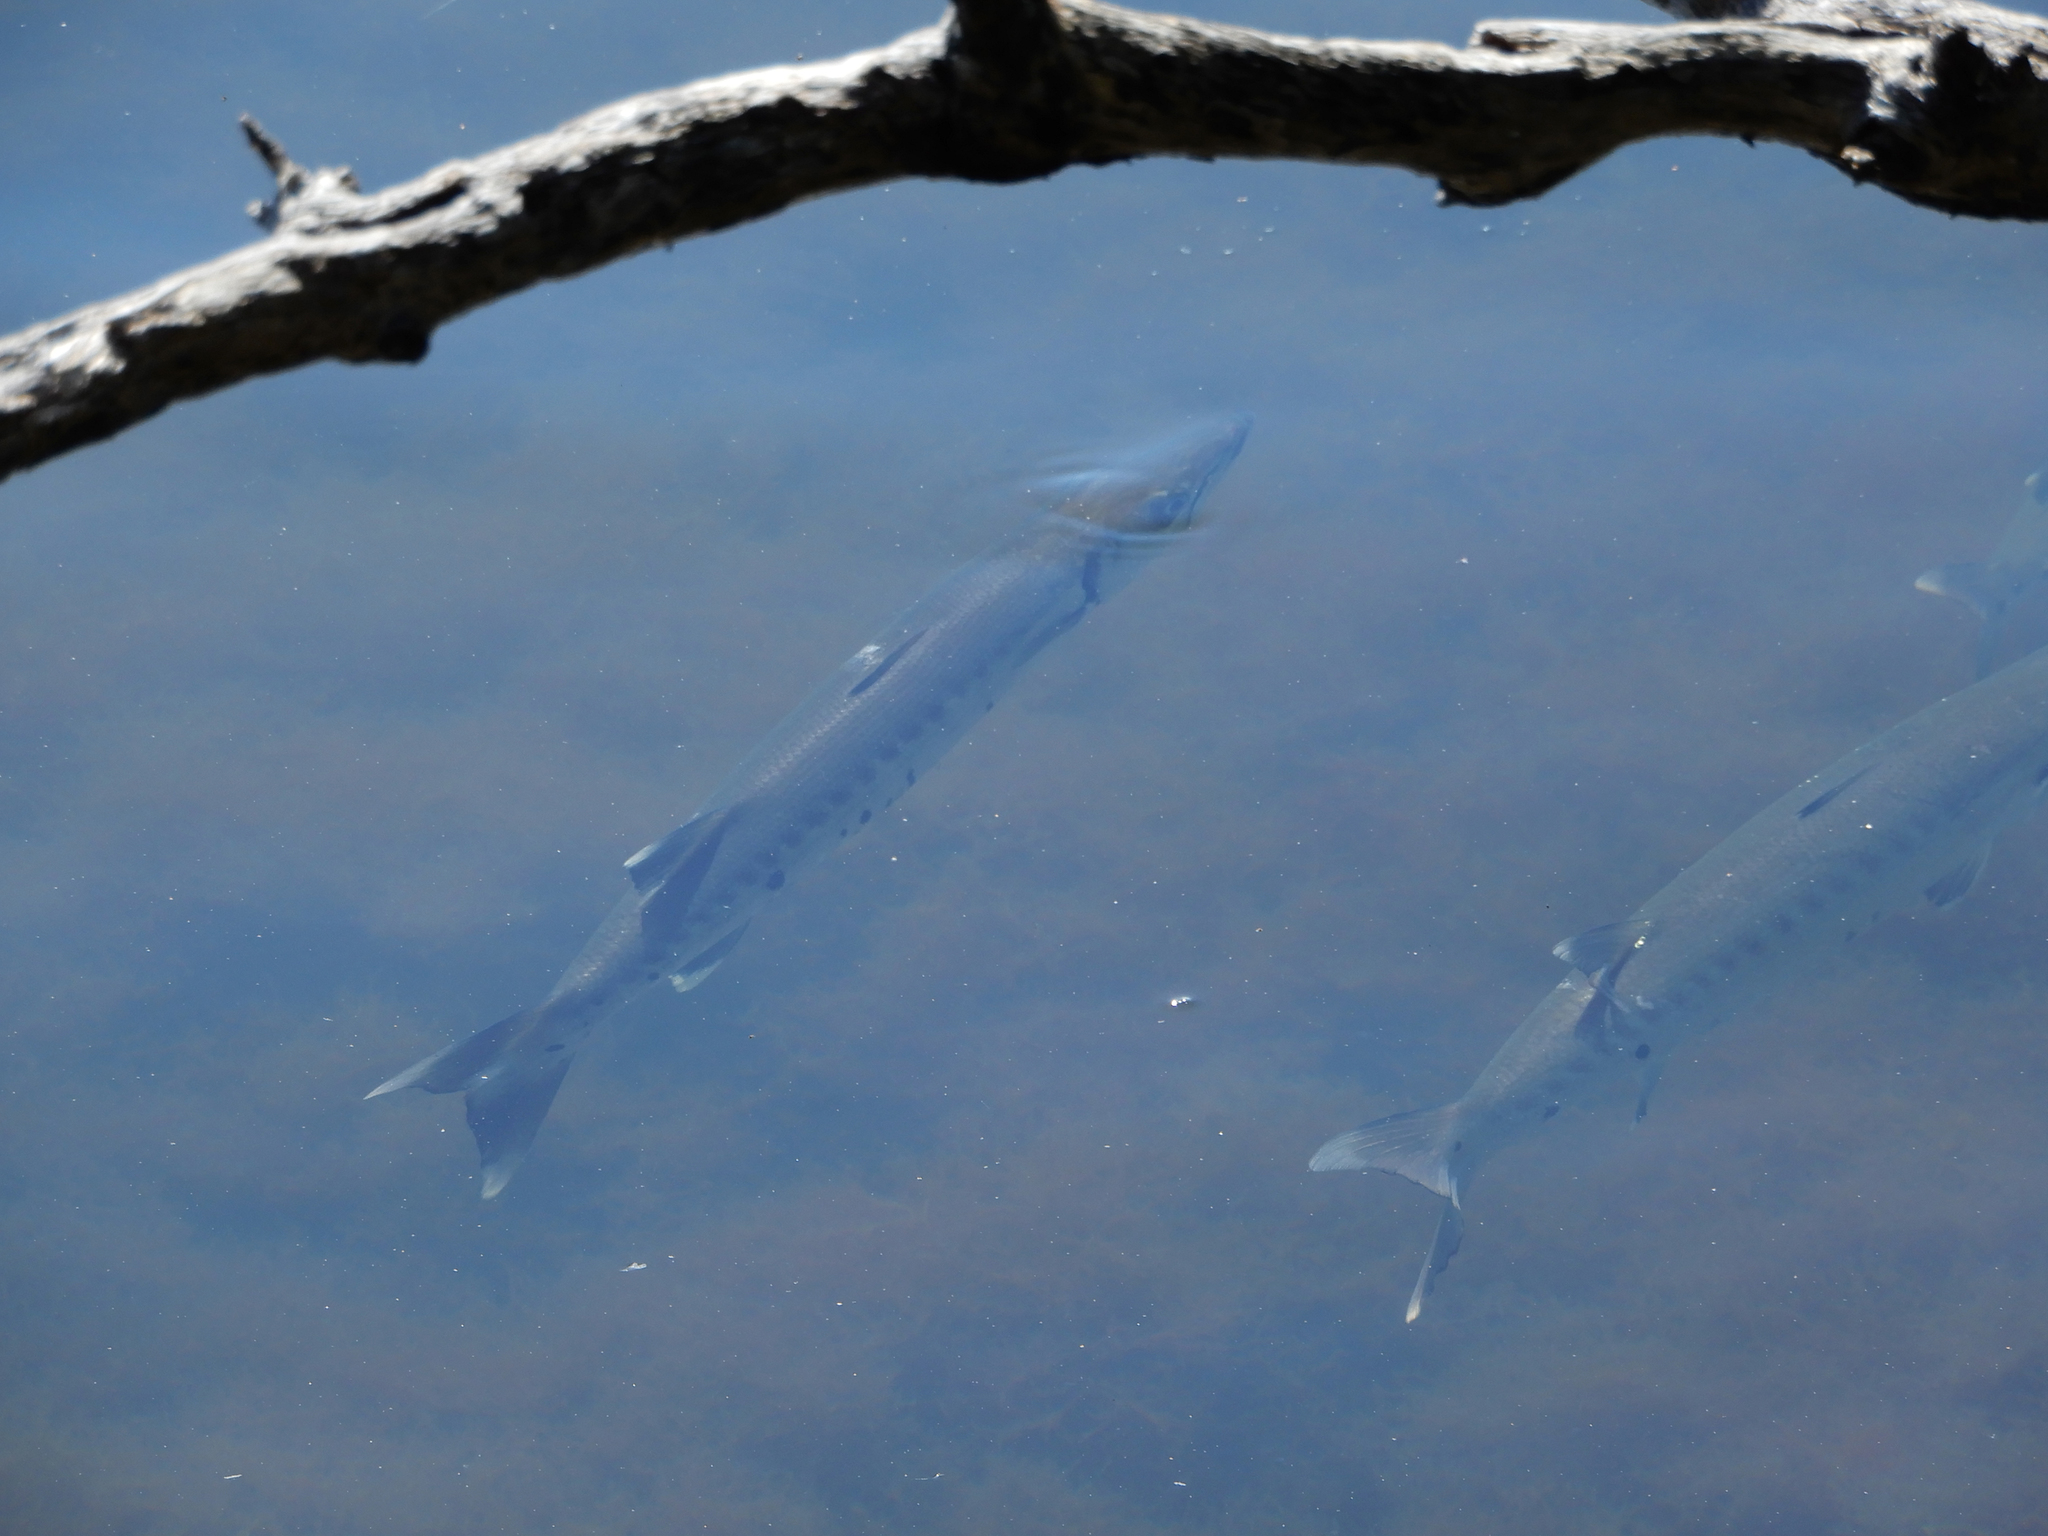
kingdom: Animalia
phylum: Chordata
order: Perciformes
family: Sphyraenidae
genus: Sphyraena
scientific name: Sphyraena barracuda
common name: Great barracuda
